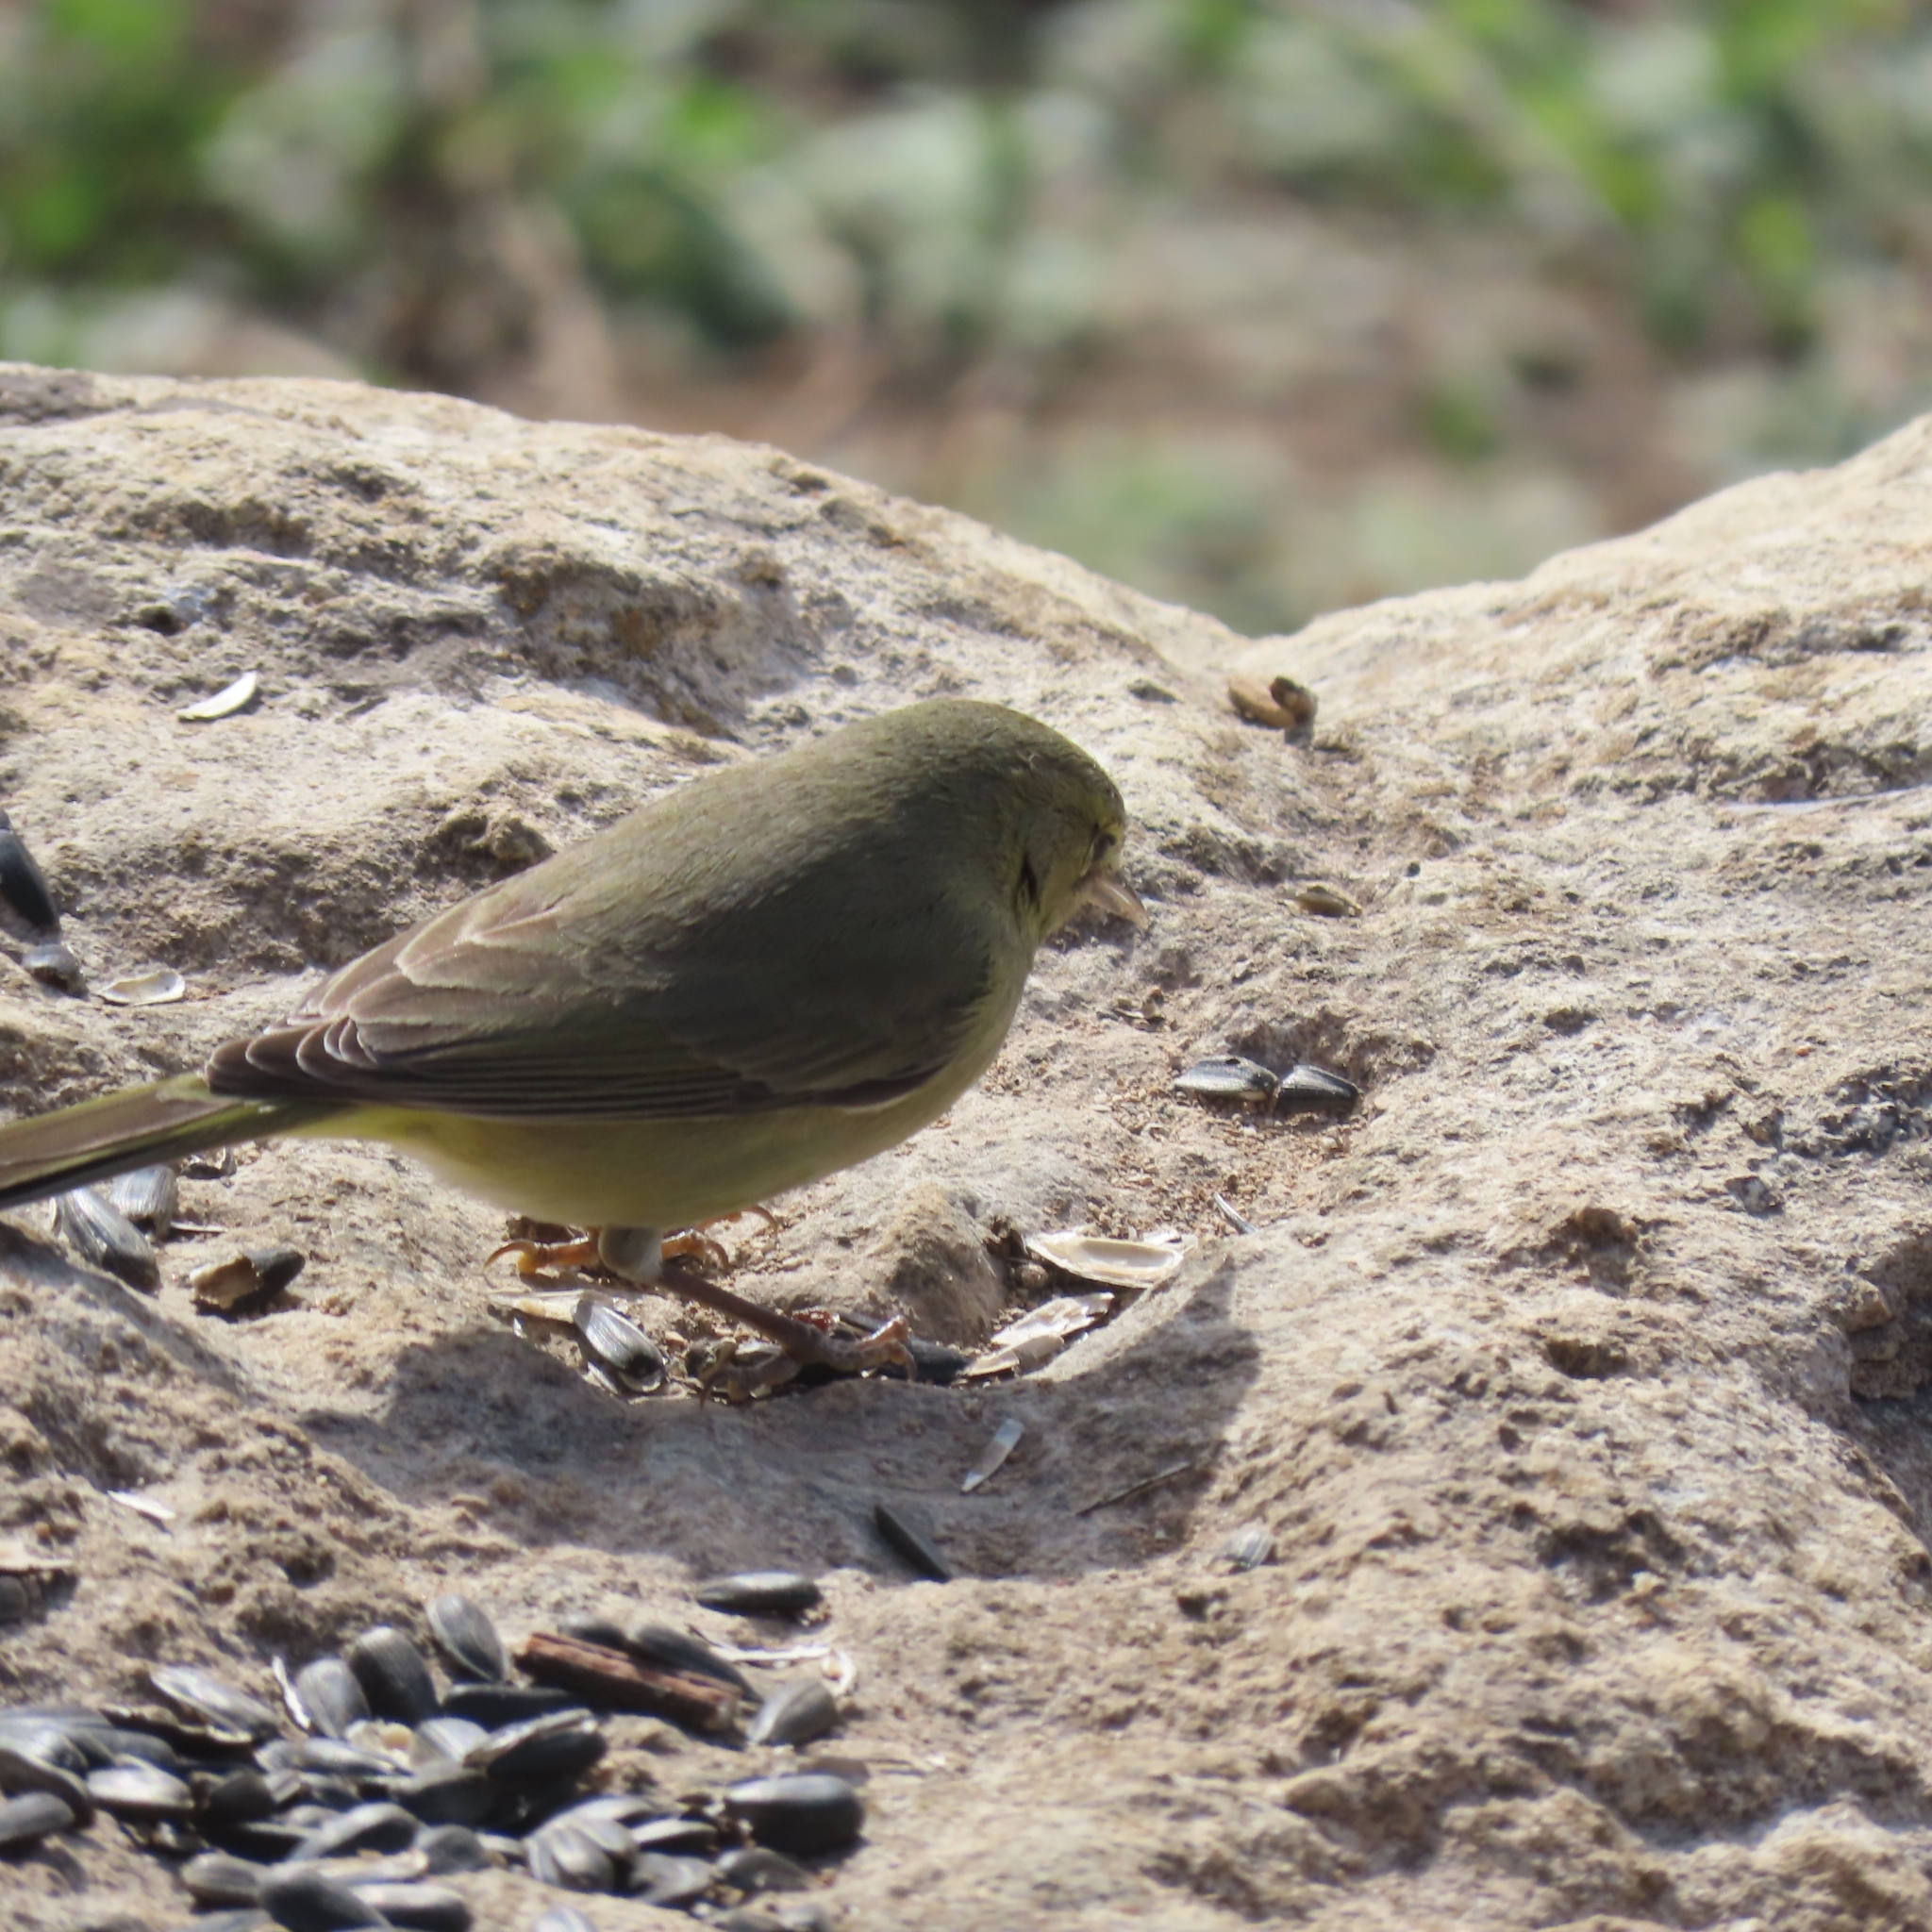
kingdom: Animalia
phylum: Chordata
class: Aves
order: Passeriformes
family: Parulidae
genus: Leiothlypis
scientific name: Leiothlypis celata
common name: Orange-crowned warbler
